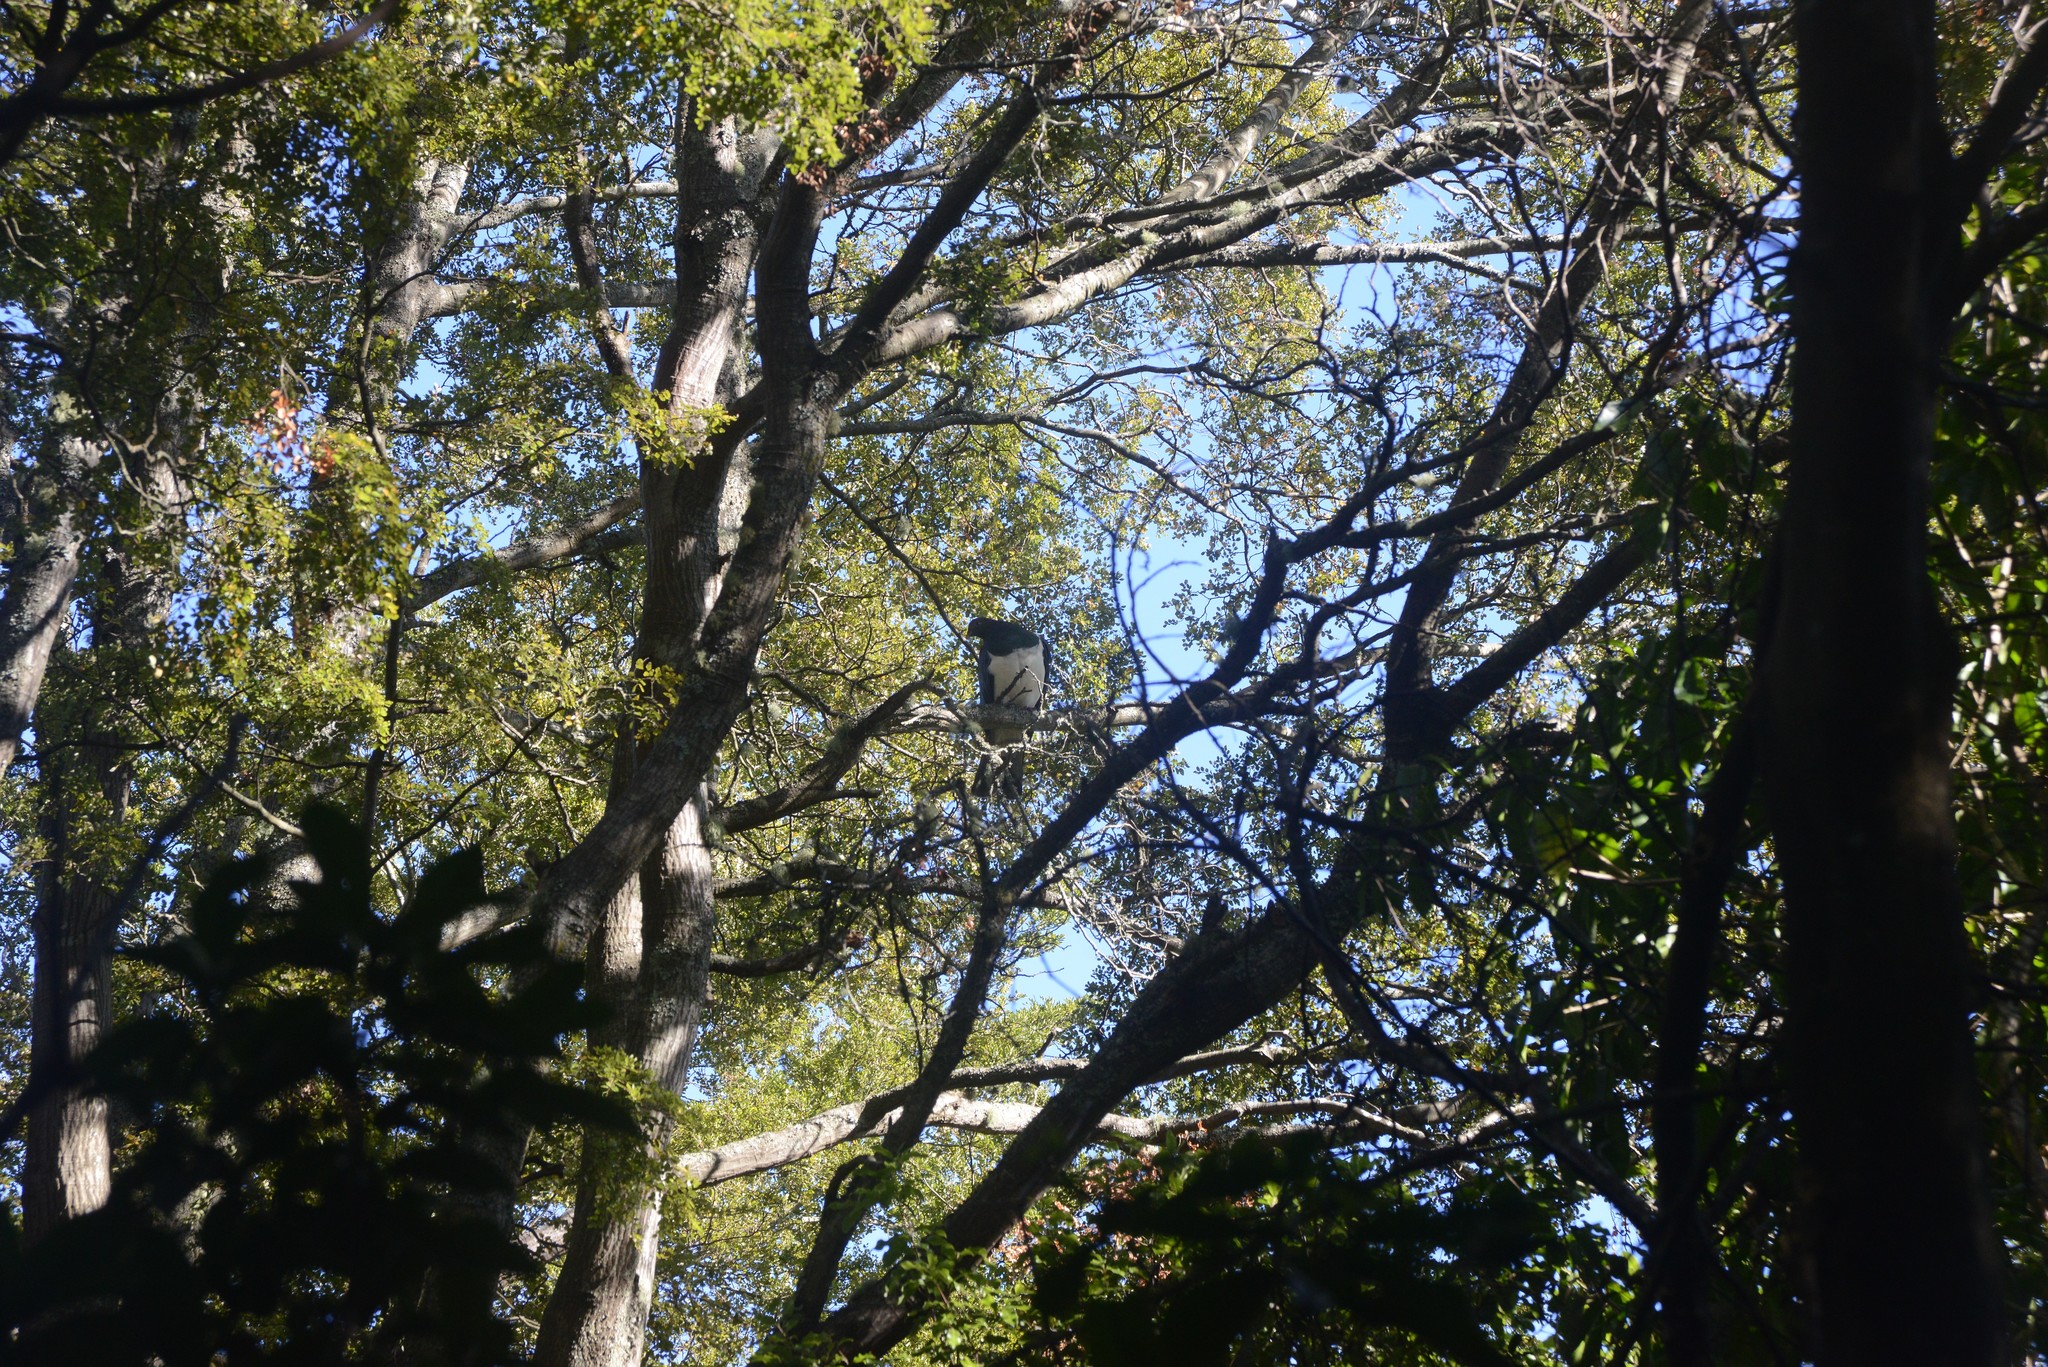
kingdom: Animalia
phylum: Chordata
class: Aves
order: Columbiformes
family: Columbidae
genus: Hemiphaga
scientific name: Hemiphaga novaeseelandiae
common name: New zealand pigeon
